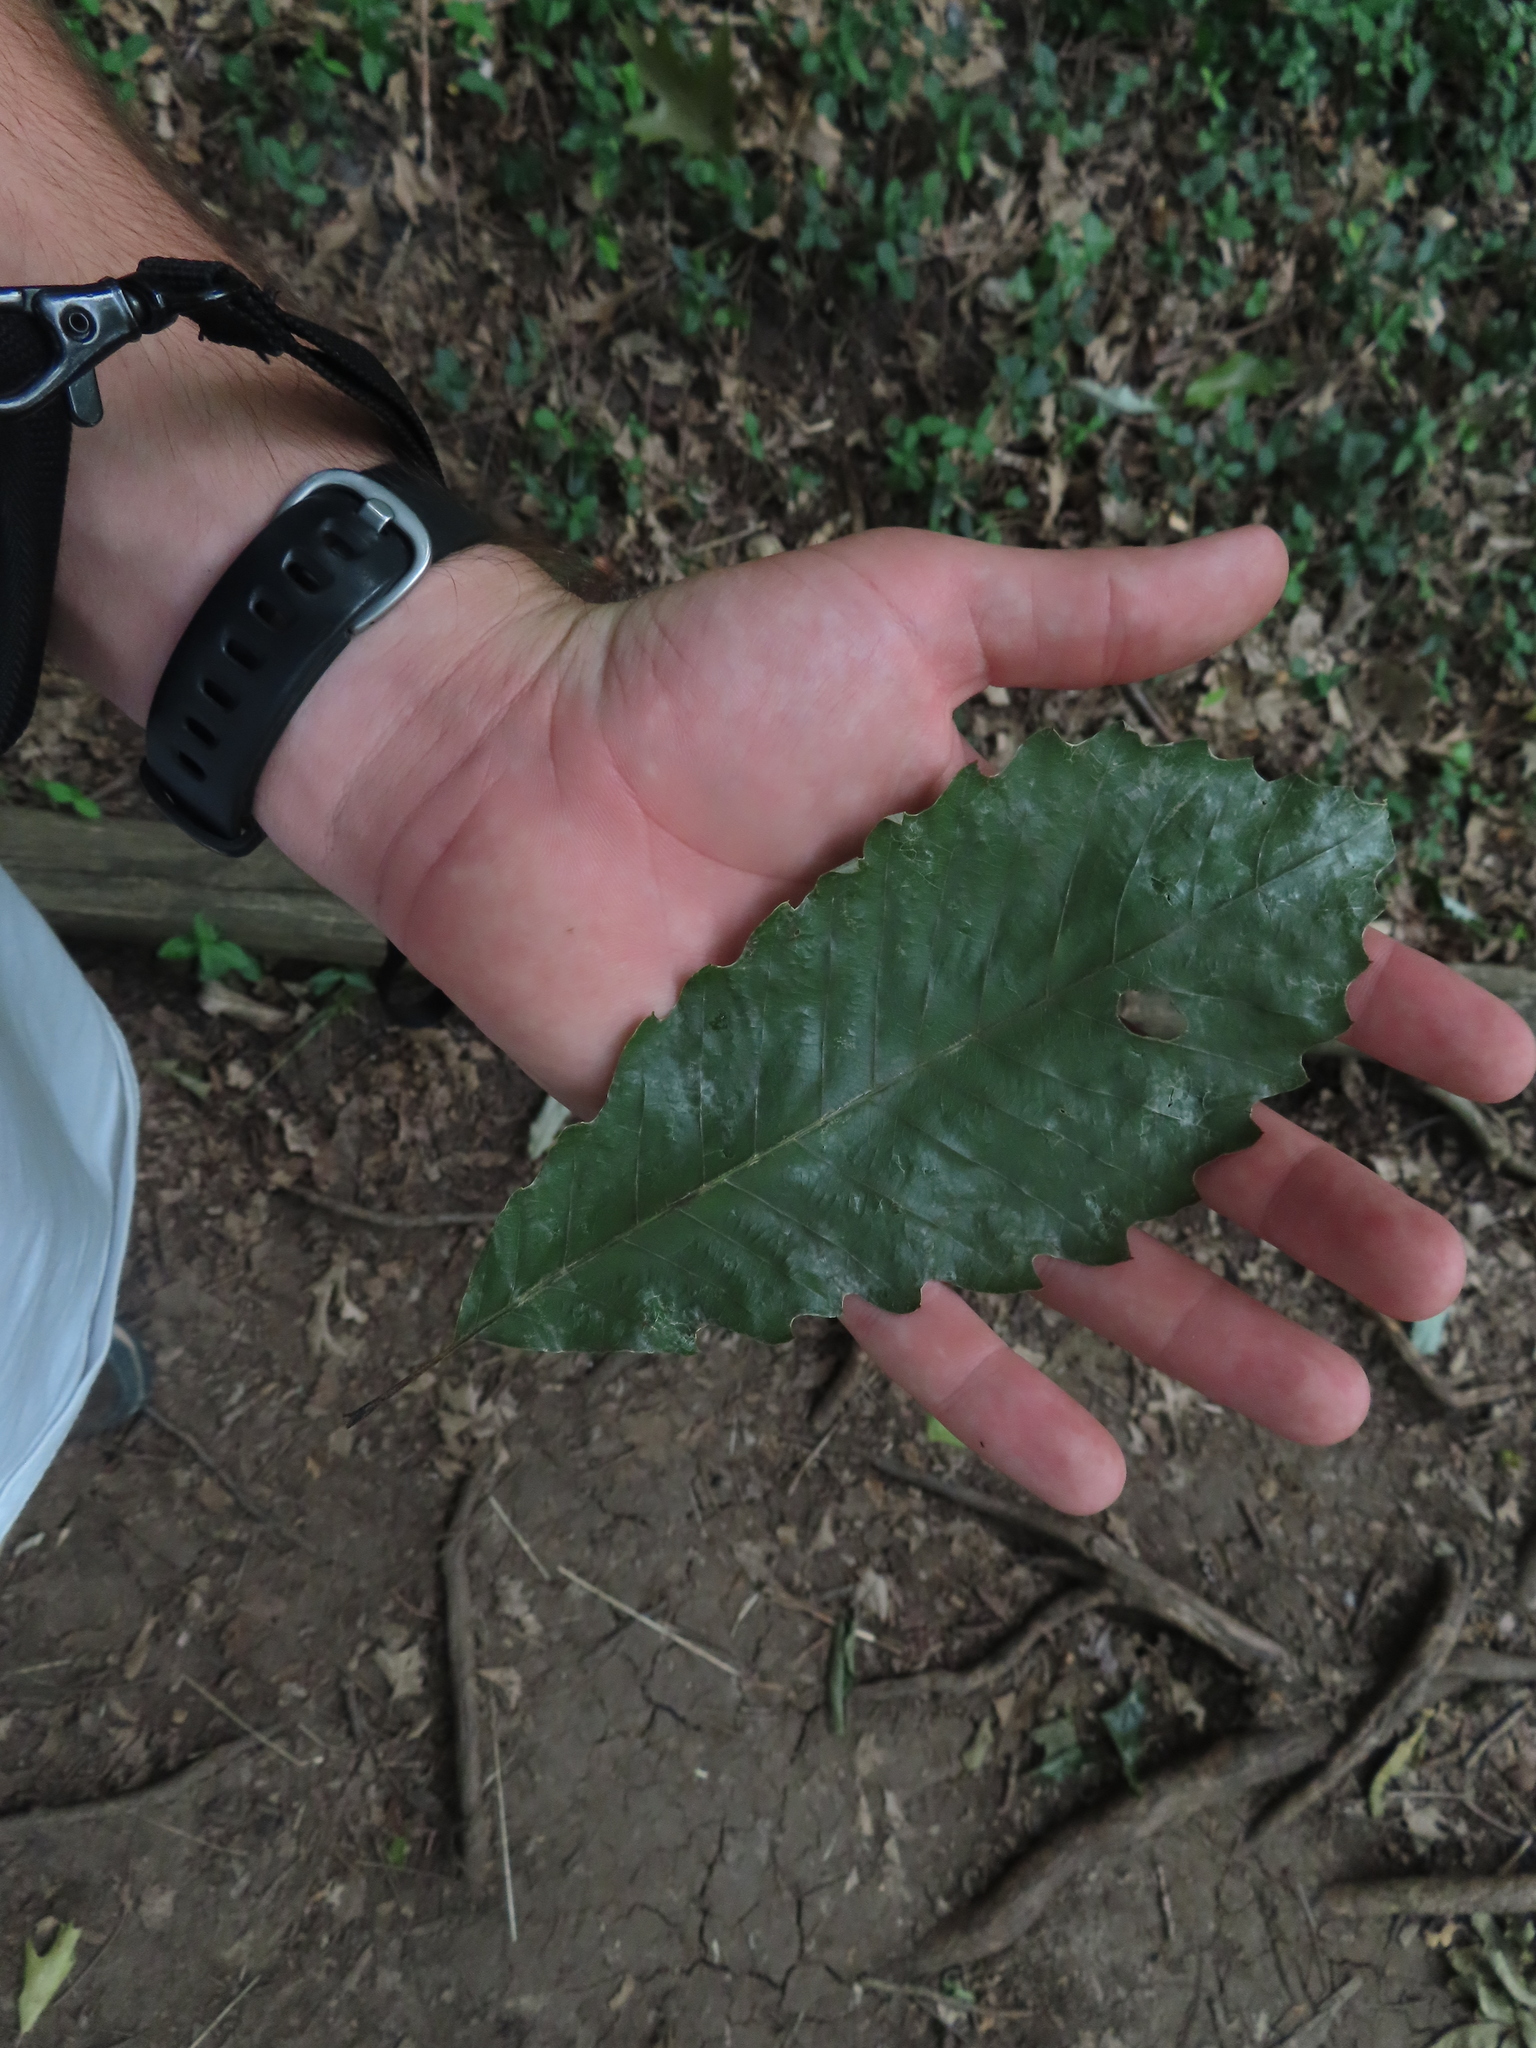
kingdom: Plantae
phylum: Tracheophyta
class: Magnoliopsida
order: Fagales
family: Fagaceae
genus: Quercus
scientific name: Quercus muehlenbergii
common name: Chinkapin oak
